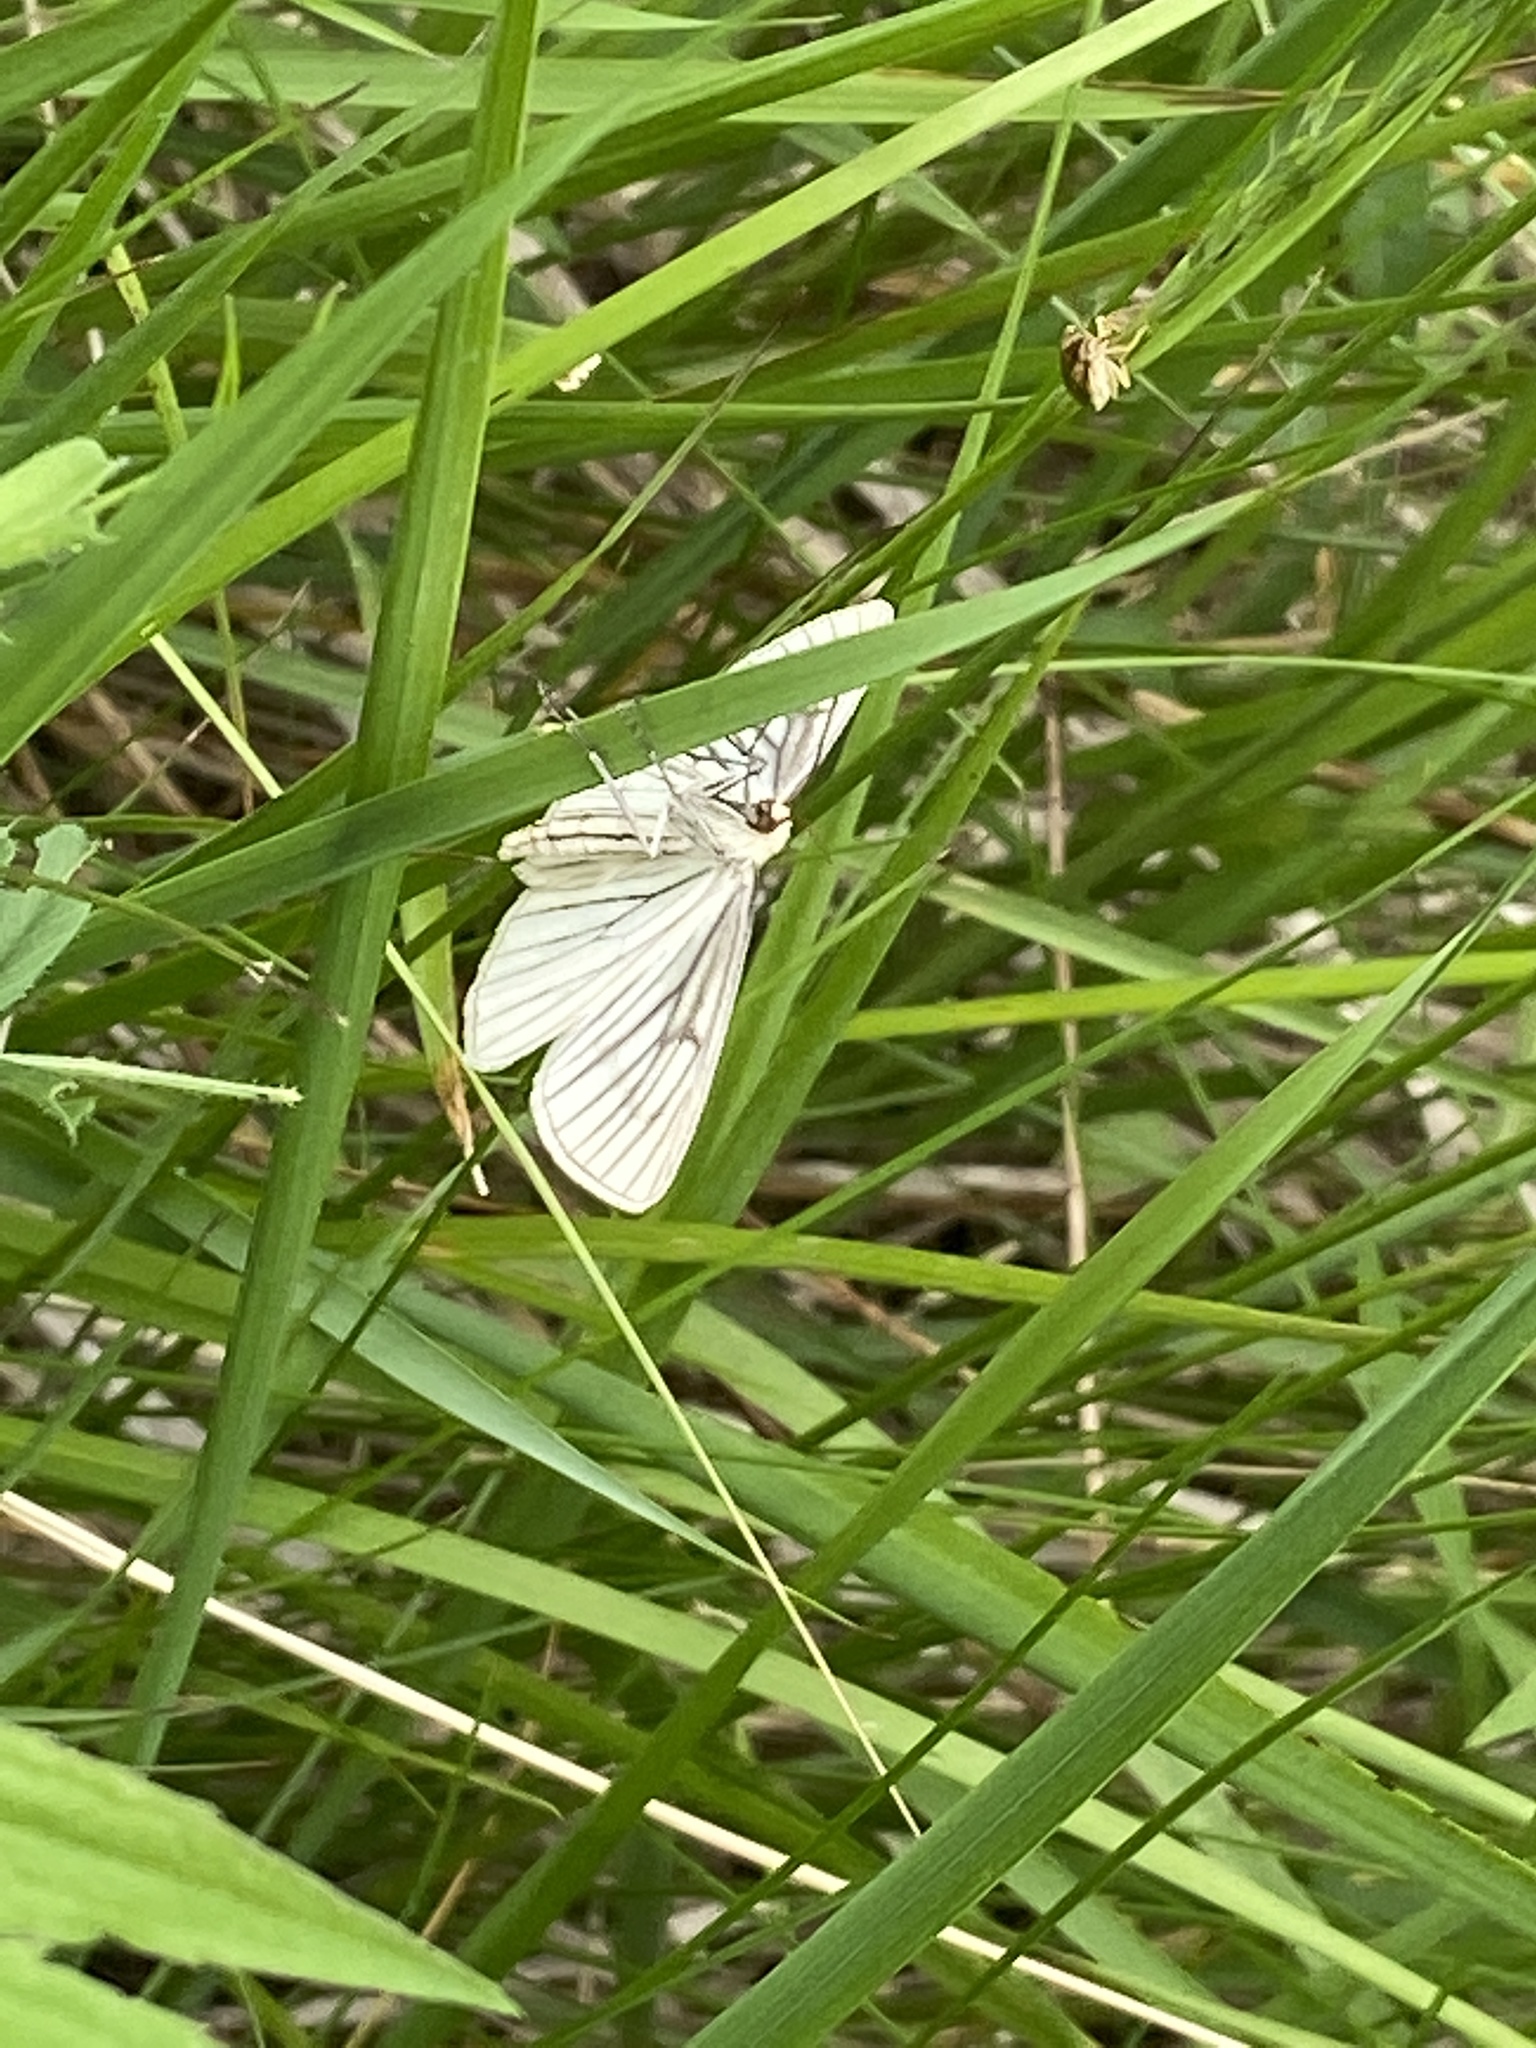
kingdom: Animalia
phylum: Arthropoda
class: Insecta
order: Lepidoptera
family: Geometridae
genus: Siona
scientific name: Siona lineata
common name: Black-veined moth
